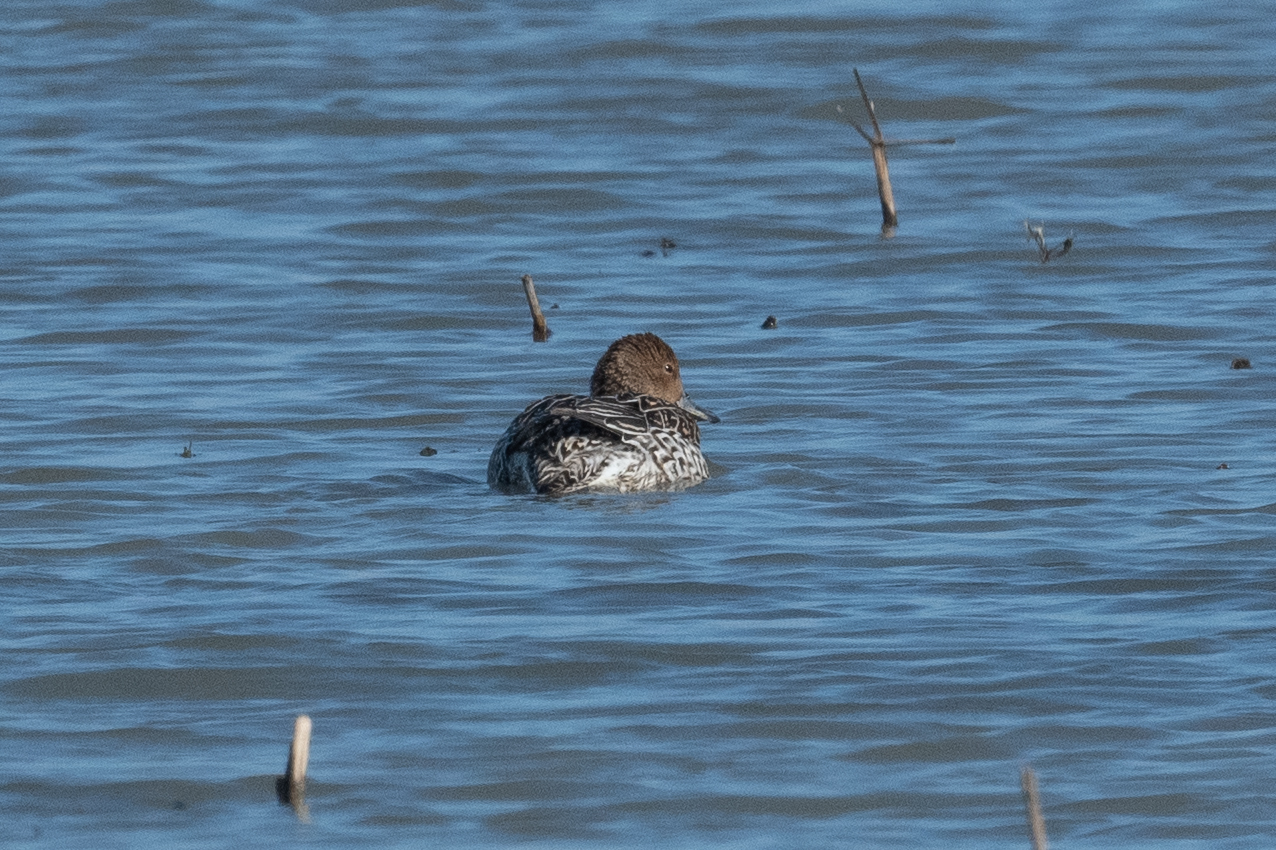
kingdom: Animalia
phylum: Chordata
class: Aves
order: Anseriformes
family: Anatidae
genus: Anas
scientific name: Anas acuta
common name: Northern pintail
